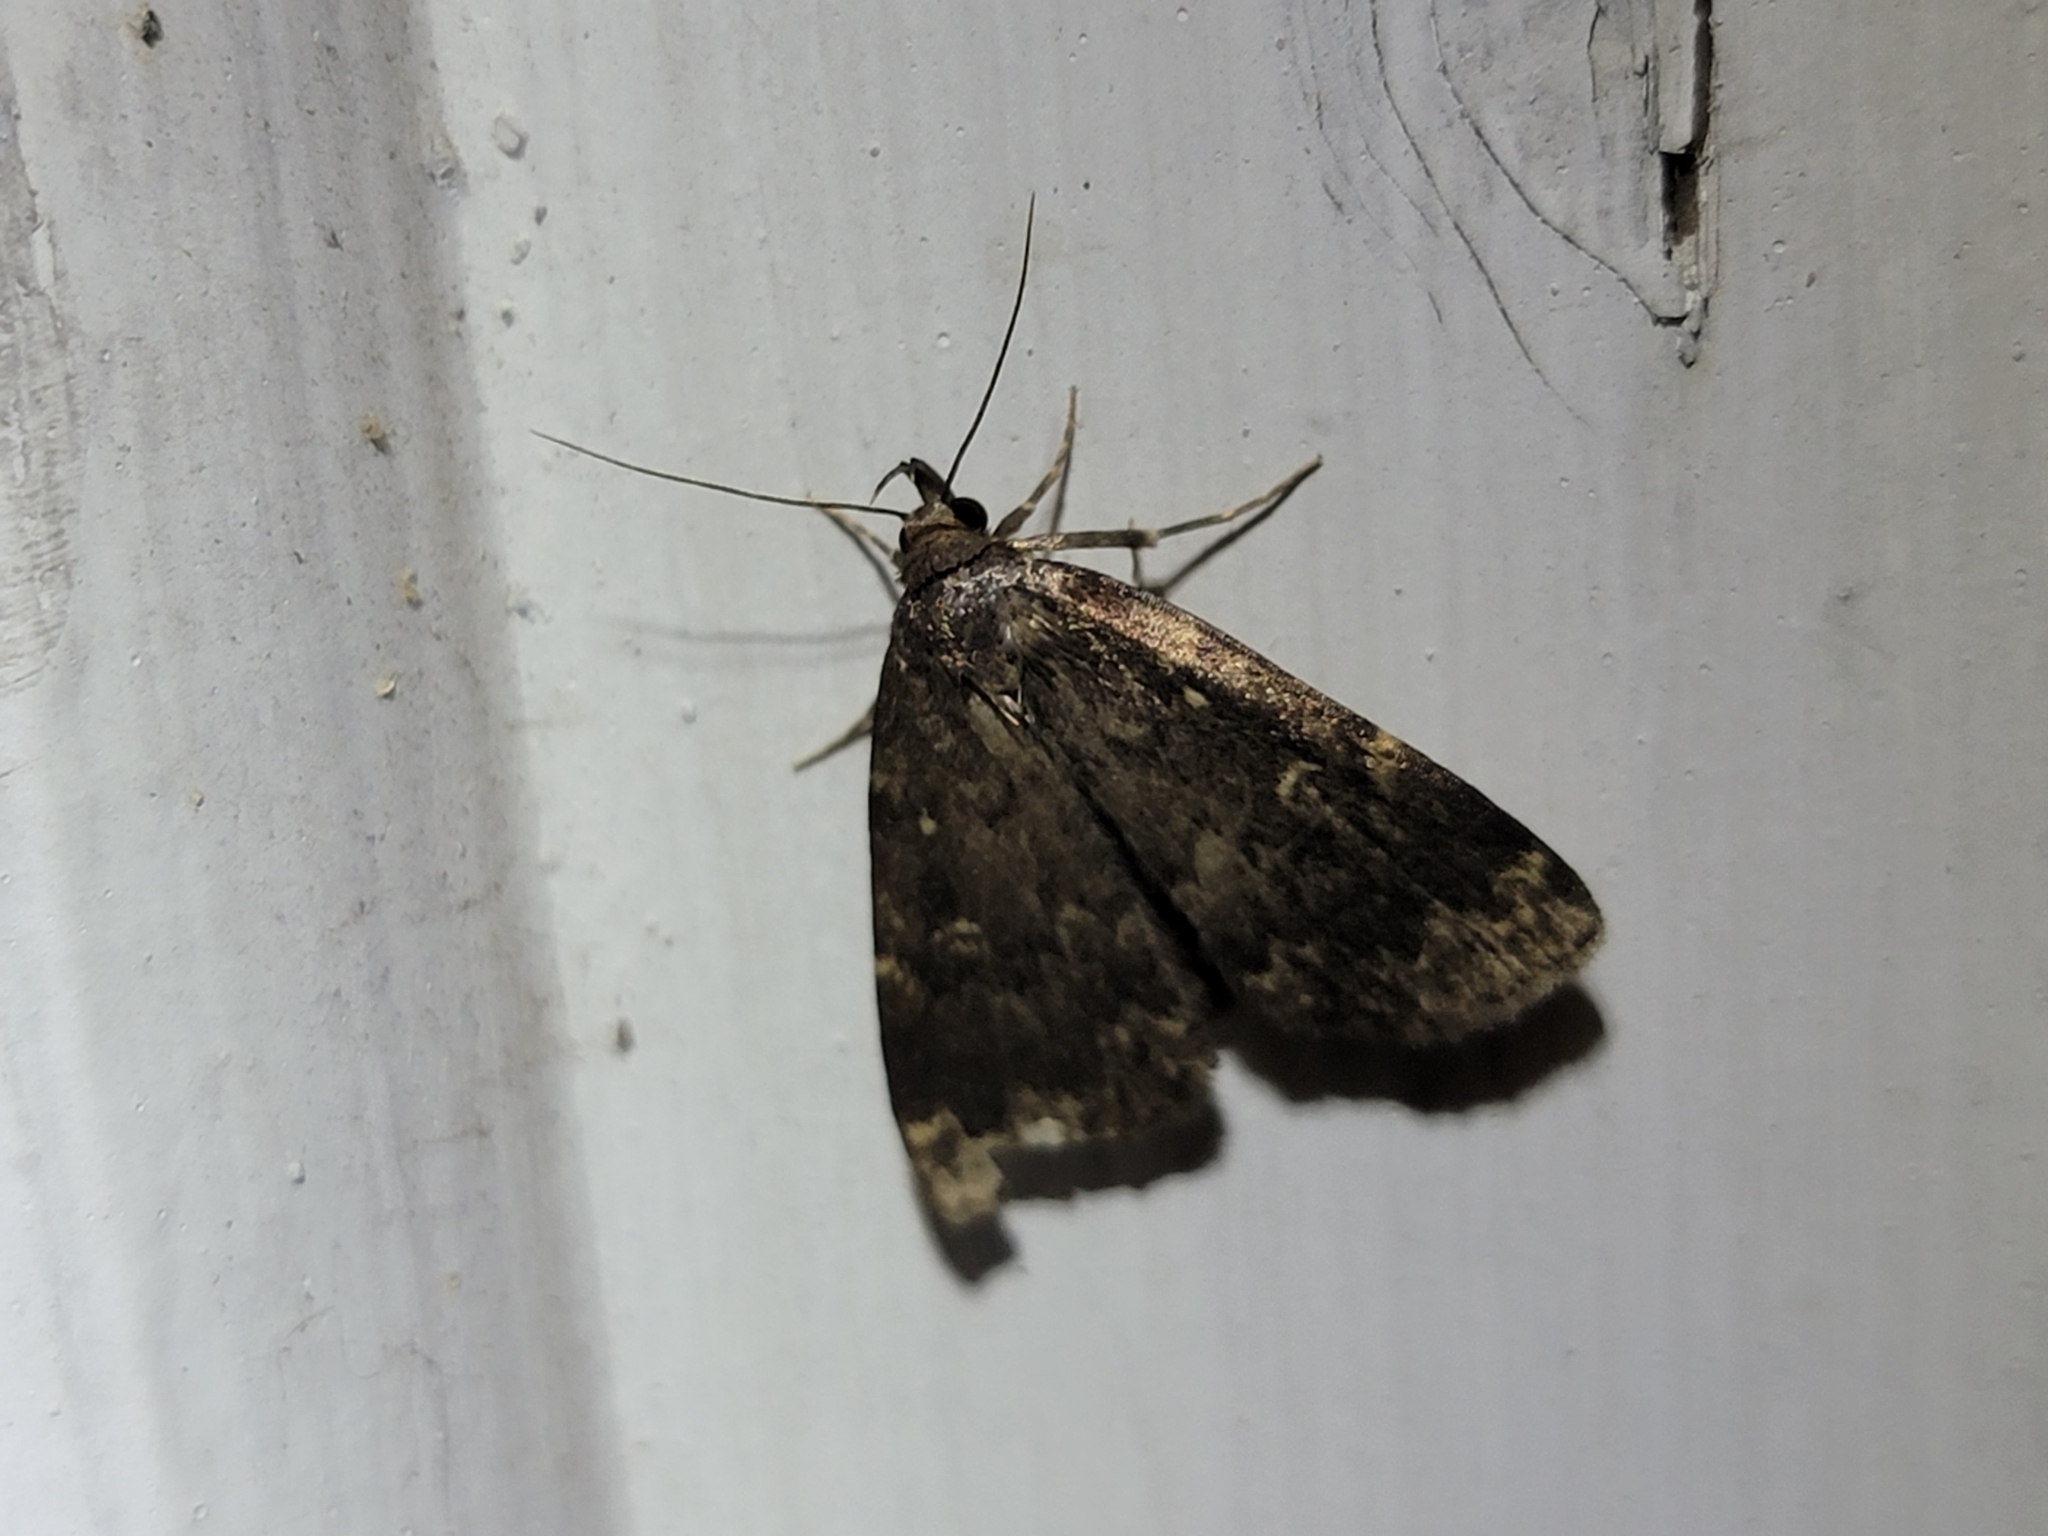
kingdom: Animalia
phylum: Arthropoda
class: Insecta
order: Lepidoptera
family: Erebidae
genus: Idia
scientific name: Idia lubricalis
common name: Twin-striped tabby
